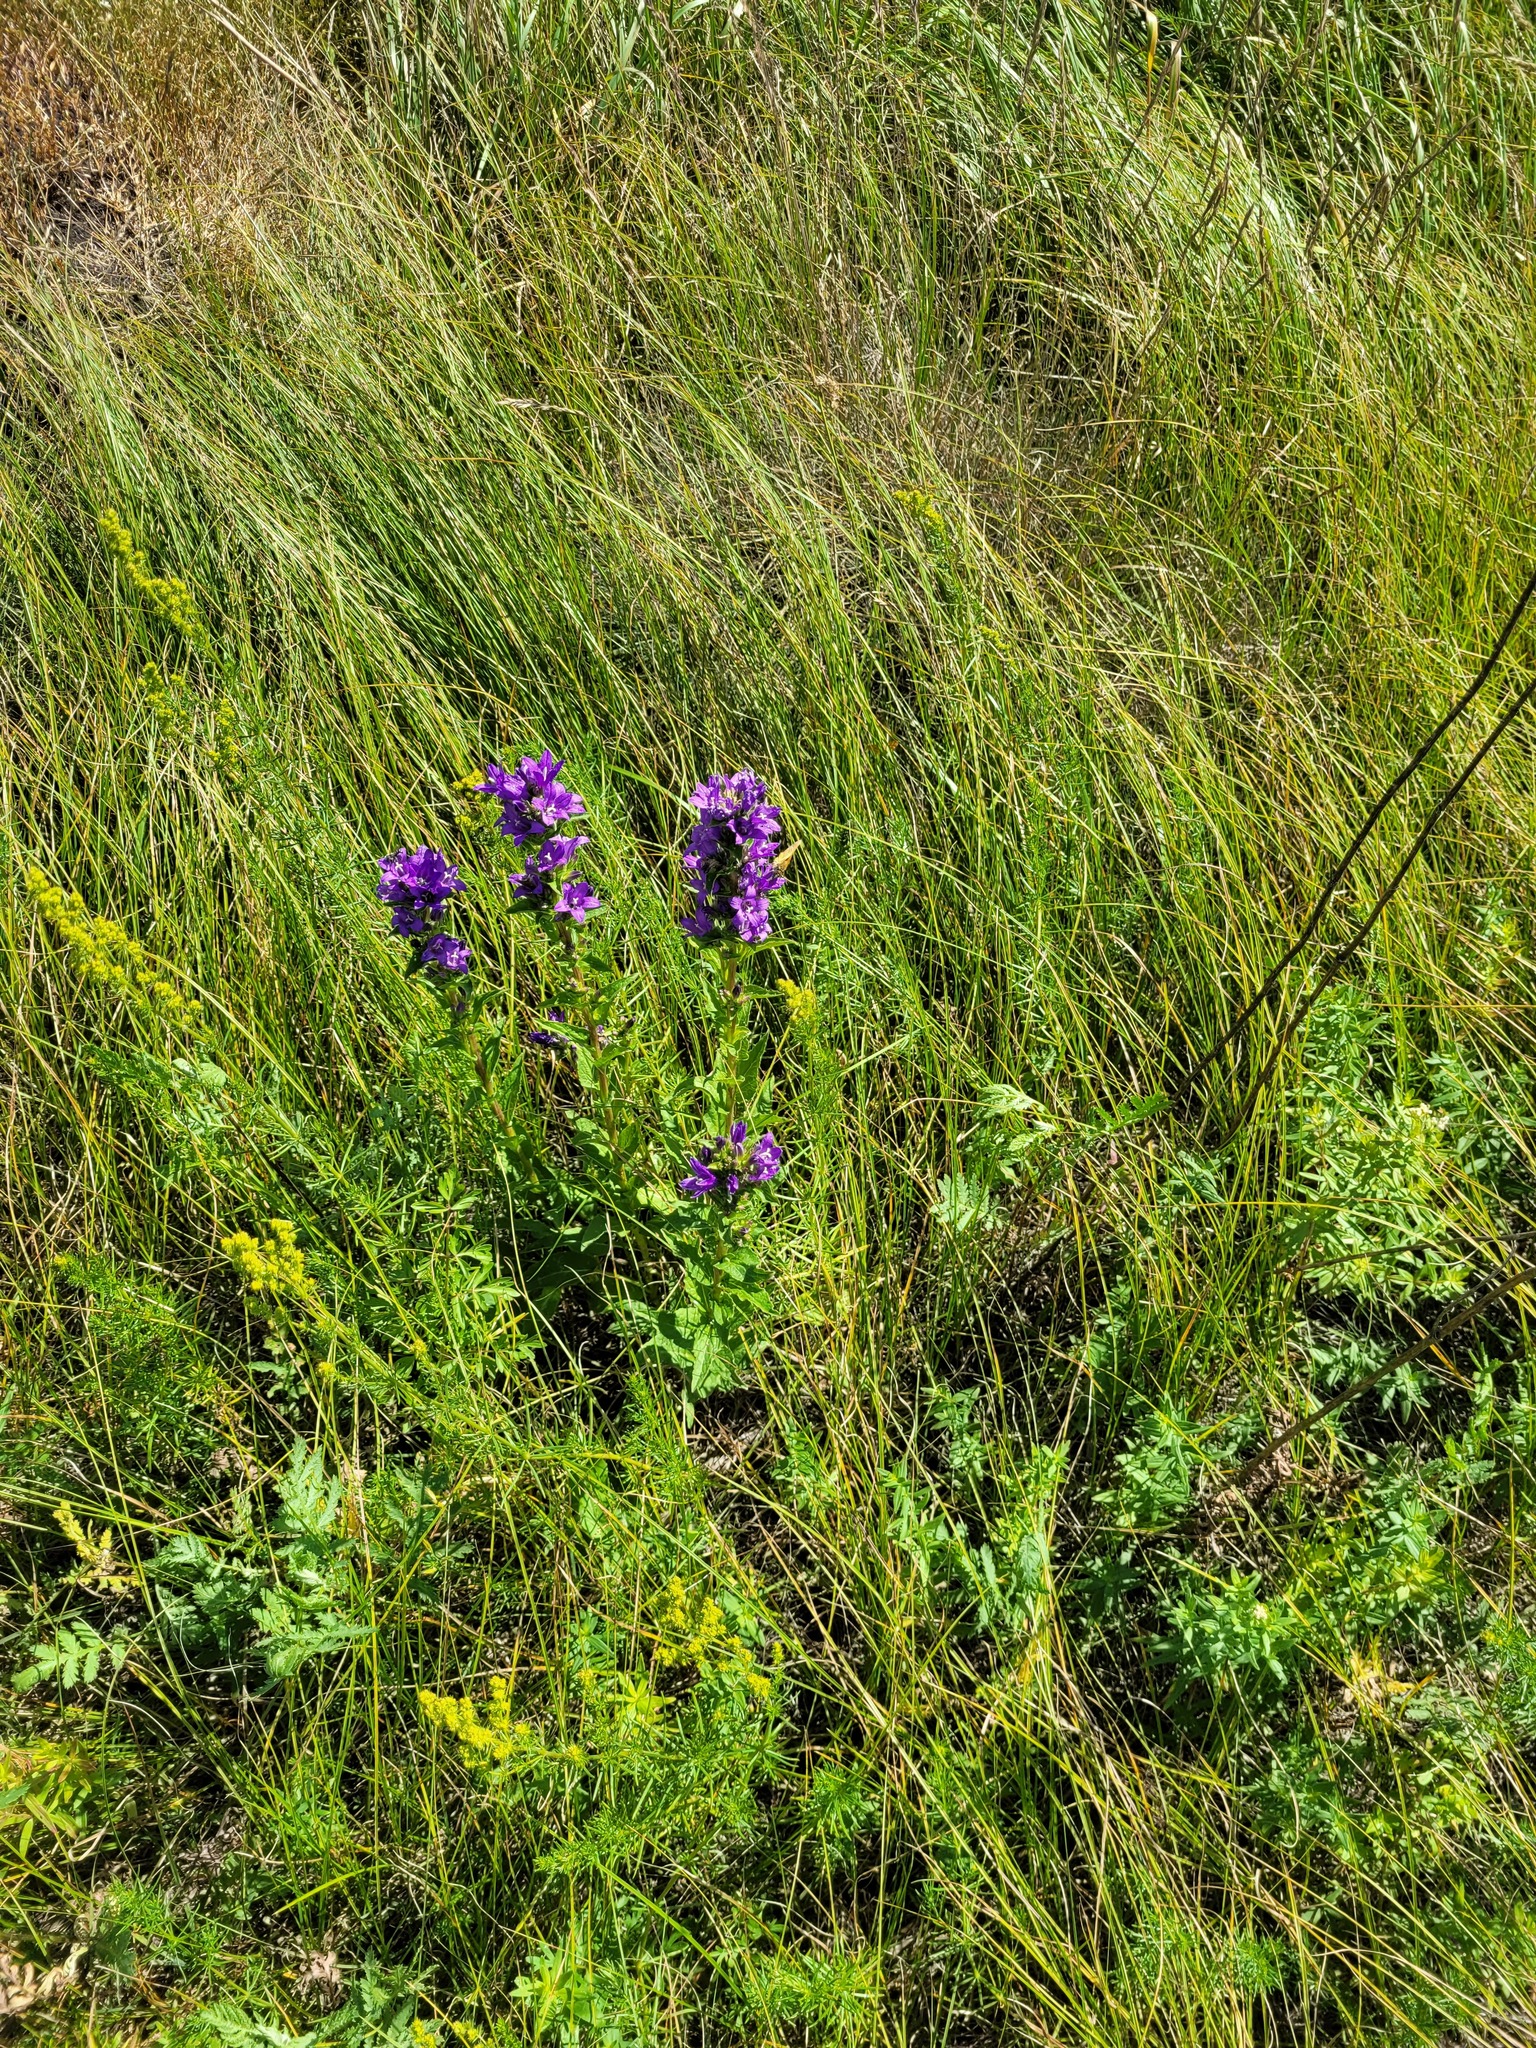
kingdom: Plantae
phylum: Tracheophyta
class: Magnoliopsida
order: Asterales
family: Campanulaceae
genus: Campanula
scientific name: Campanula glomerata
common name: Clustered bellflower
